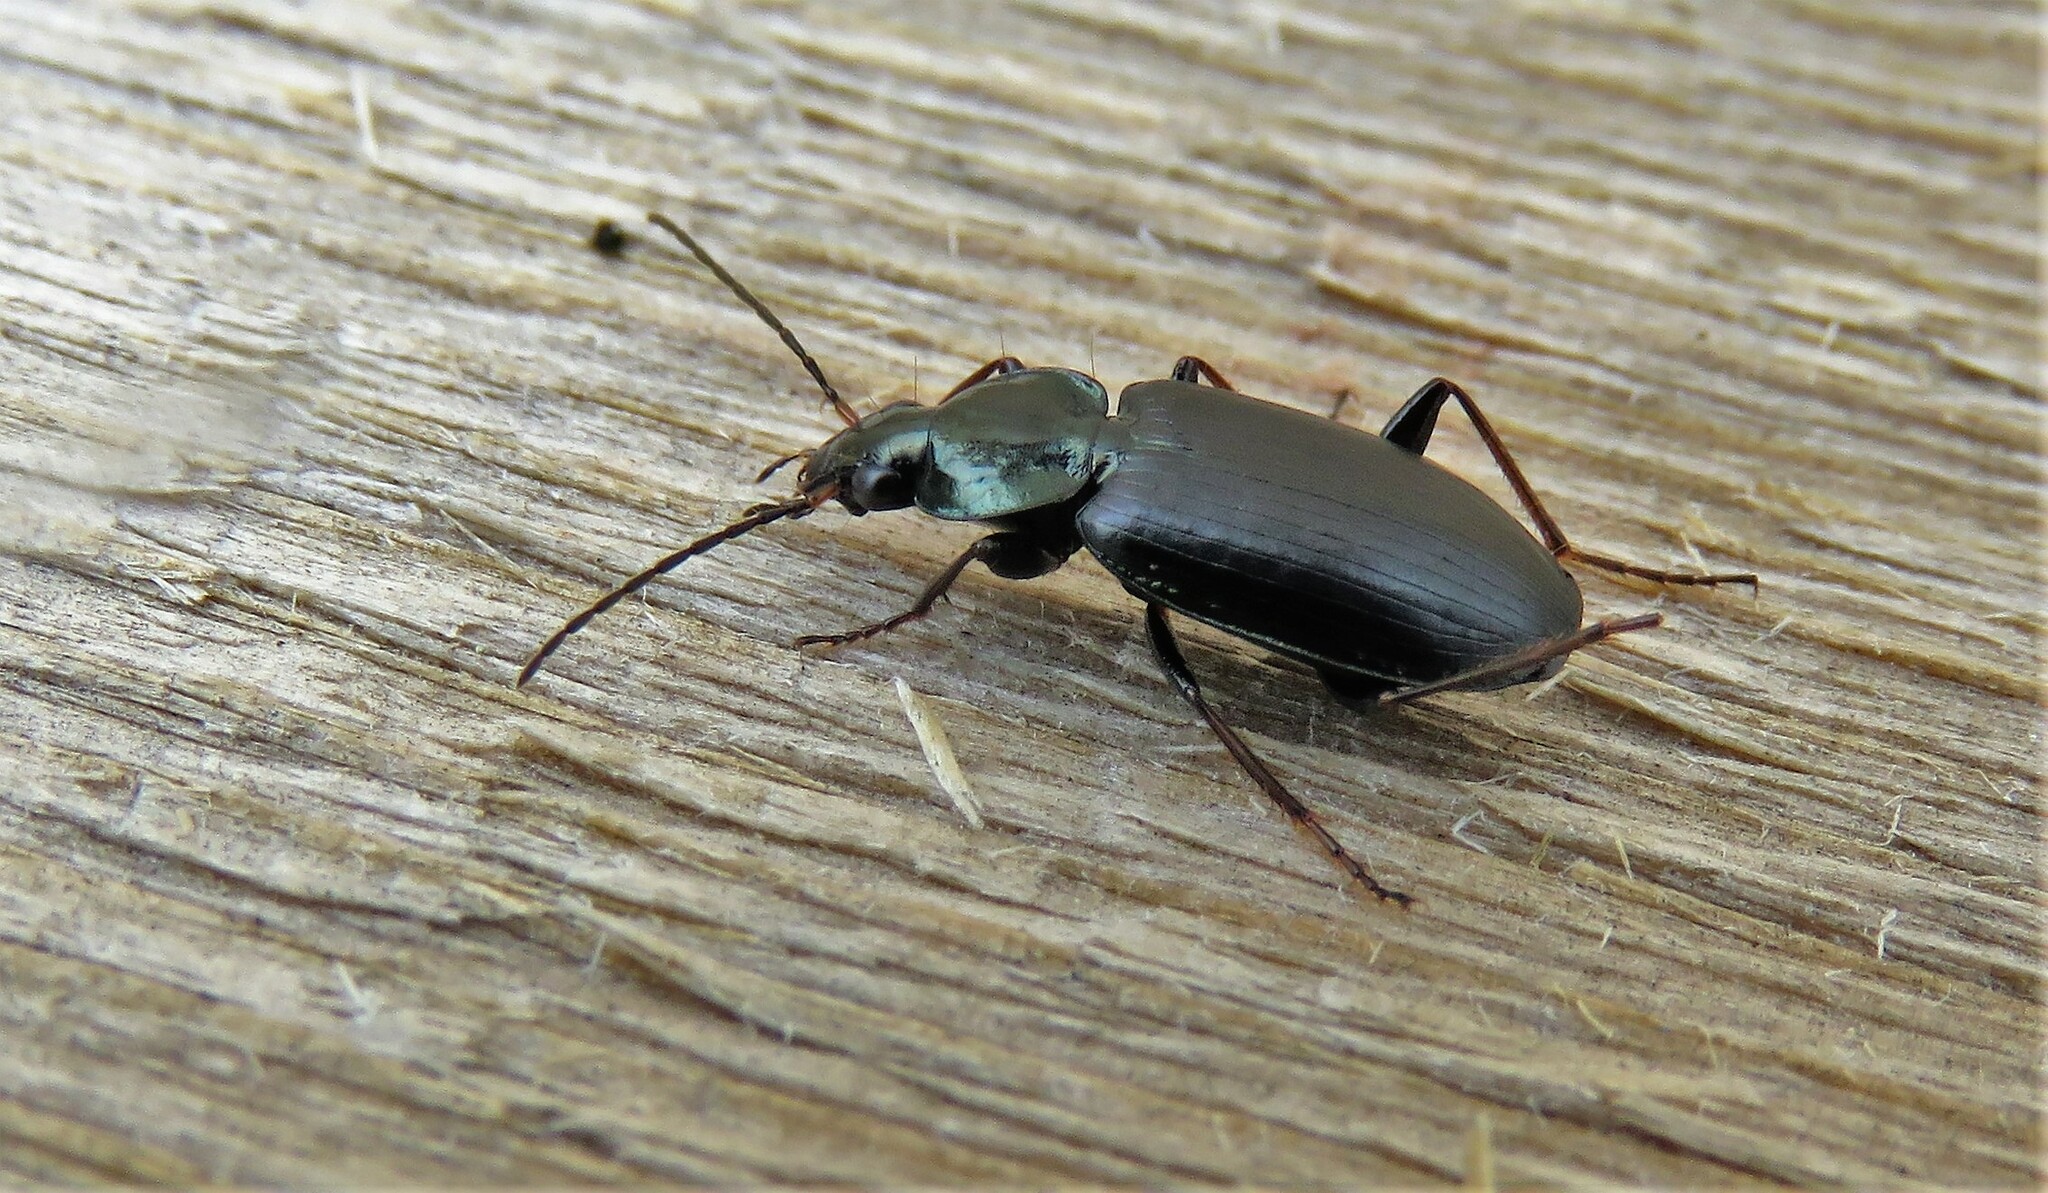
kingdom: Animalia
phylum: Arthropoda
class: Insecta
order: Coleoptera
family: Carabidae
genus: Agonum
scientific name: Agonum placidum
